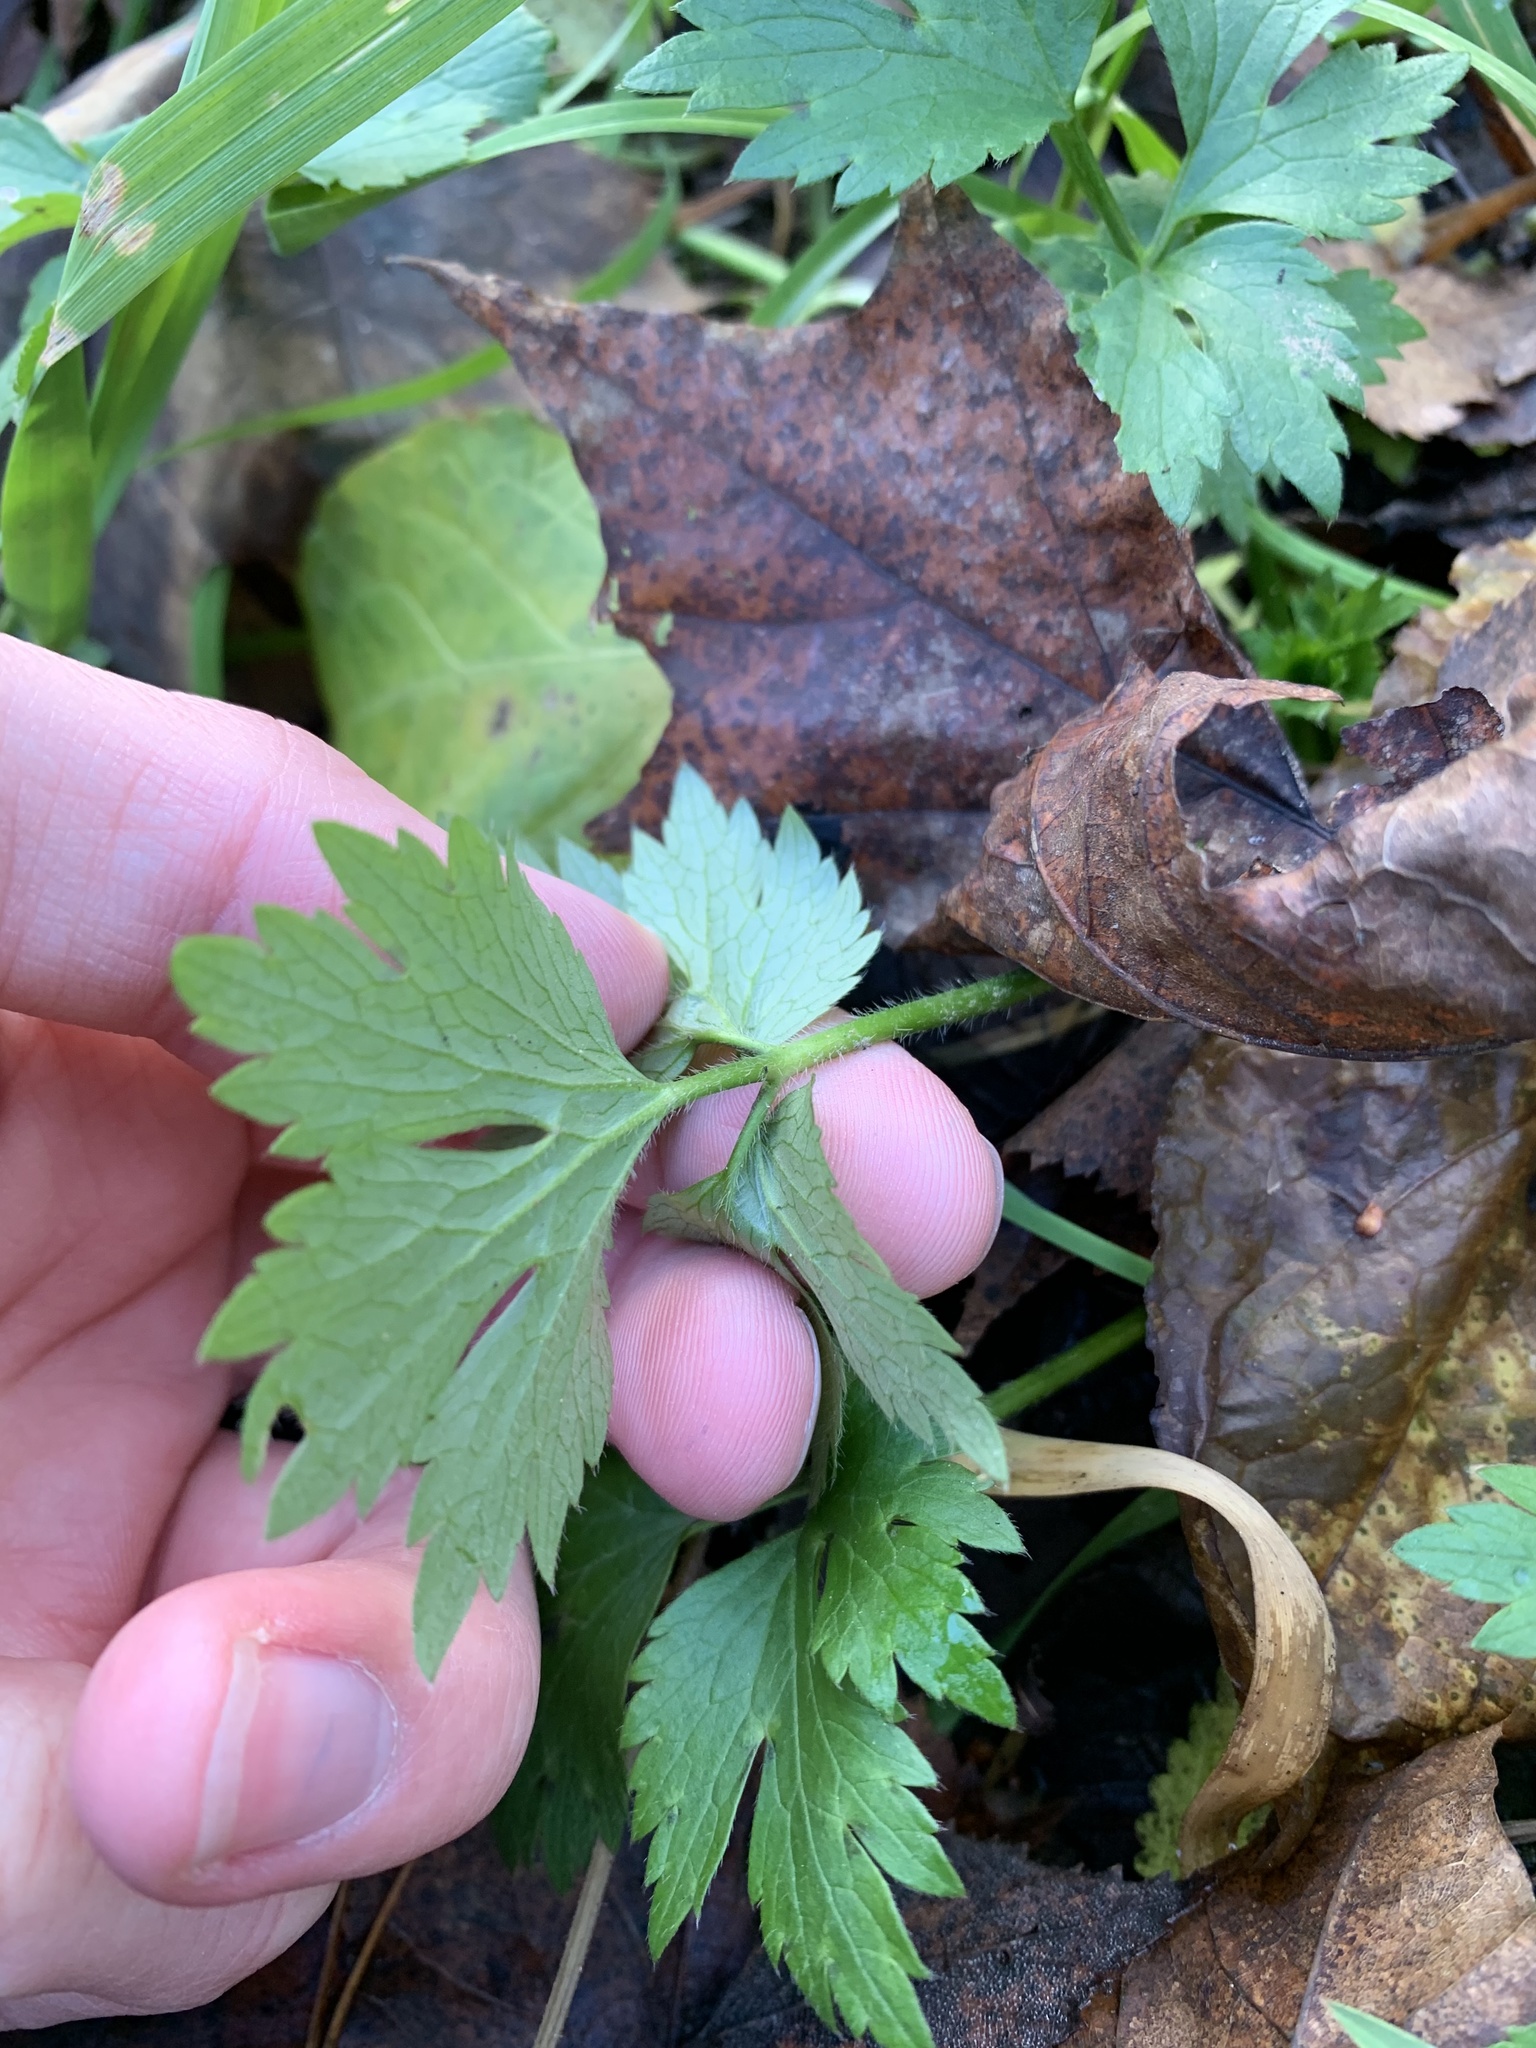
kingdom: Plantae
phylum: Tracheophyta
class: Magnoliopsida
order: Ranunculales
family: Ranunculaceae
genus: Ranunculus
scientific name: Ranunculus repens
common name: Creeping buttercup
